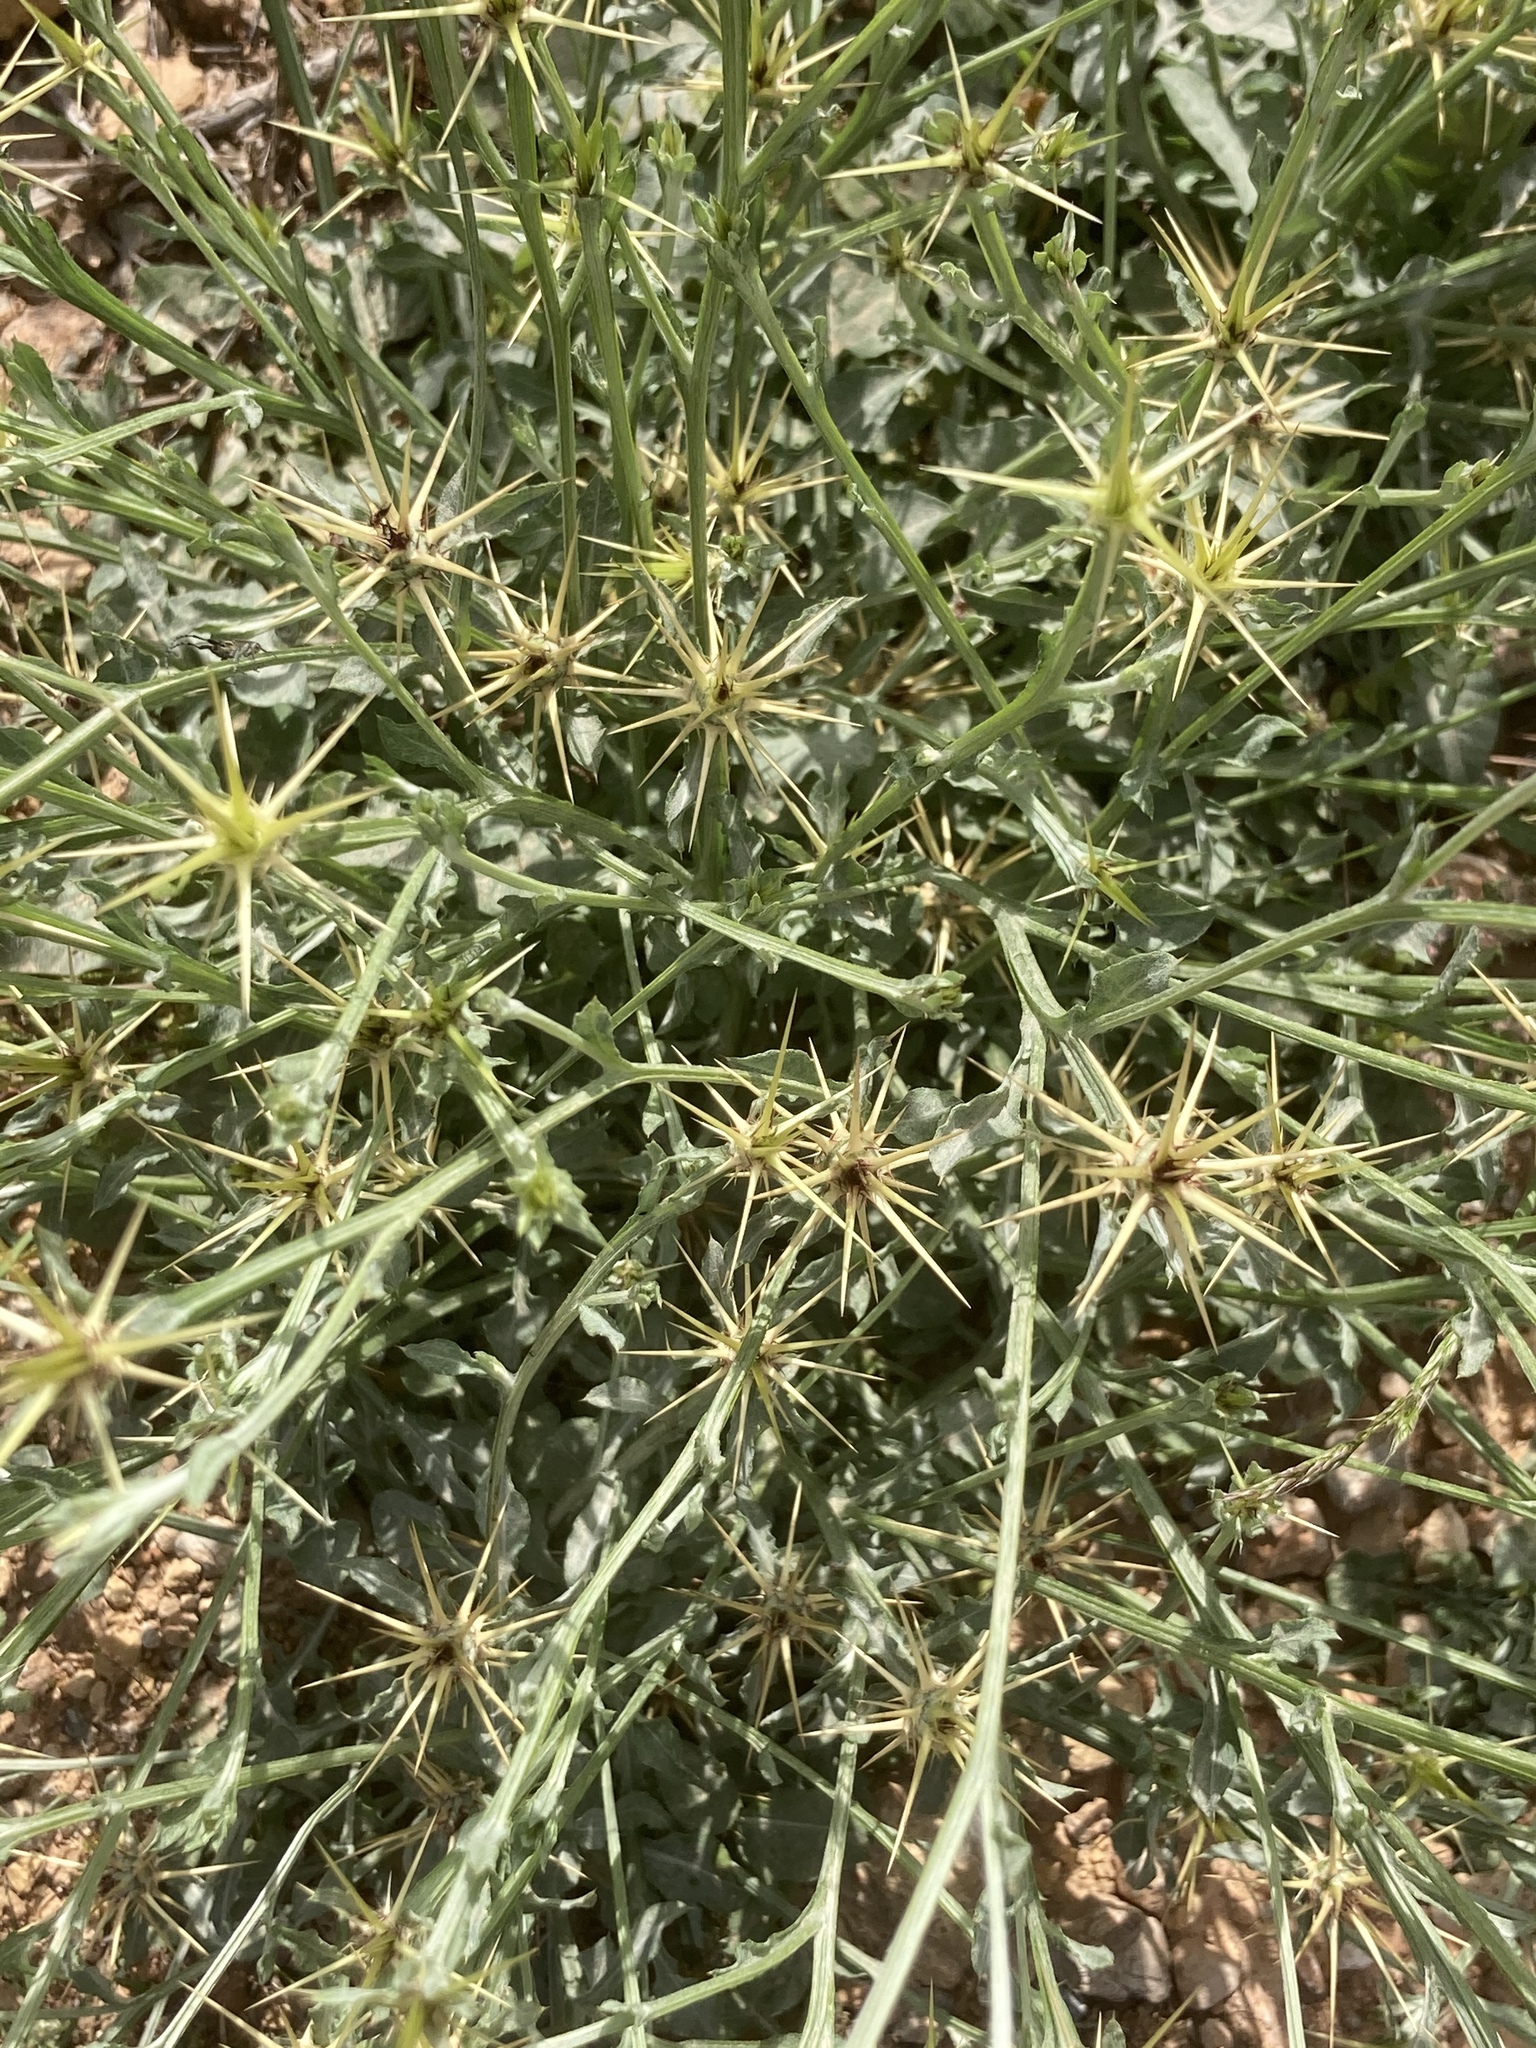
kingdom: Plantae
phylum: Tracheophyta
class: Magnoliopsida
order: Asterales
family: Asteraceae
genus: Centaurea
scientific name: Centaurea idaea
